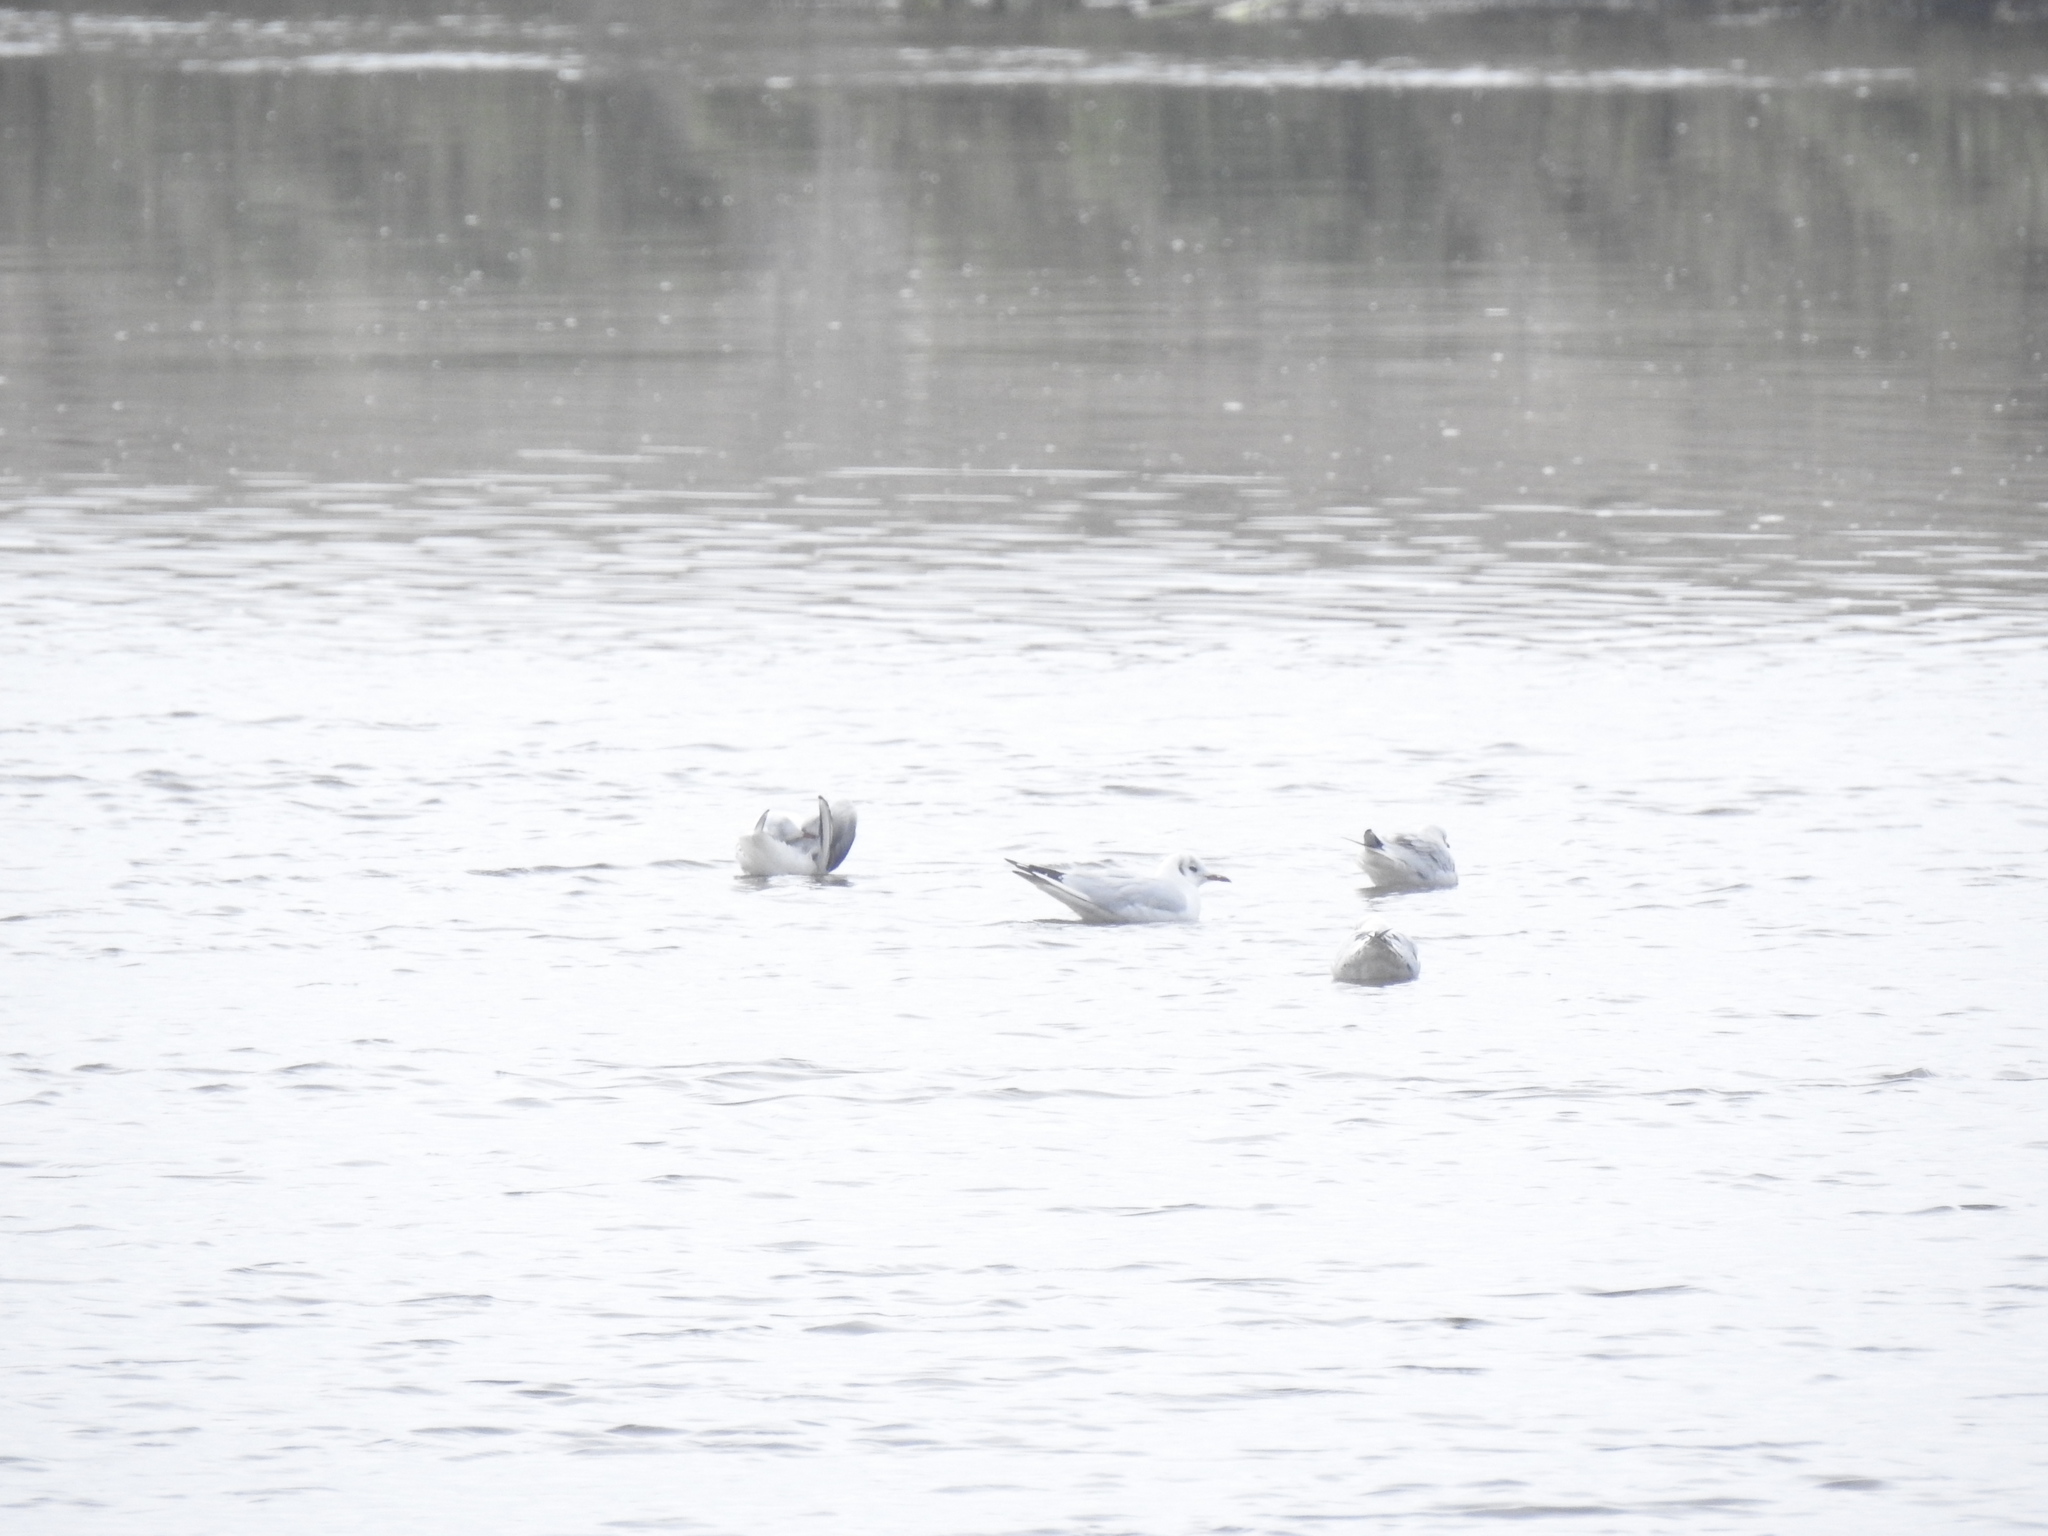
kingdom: Animalia
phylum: Chordata
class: Aves
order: Charadriiformes
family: Laridae
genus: Chroicocephalus
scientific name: Chroicocephalus ridibundus
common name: Black-headed gull
